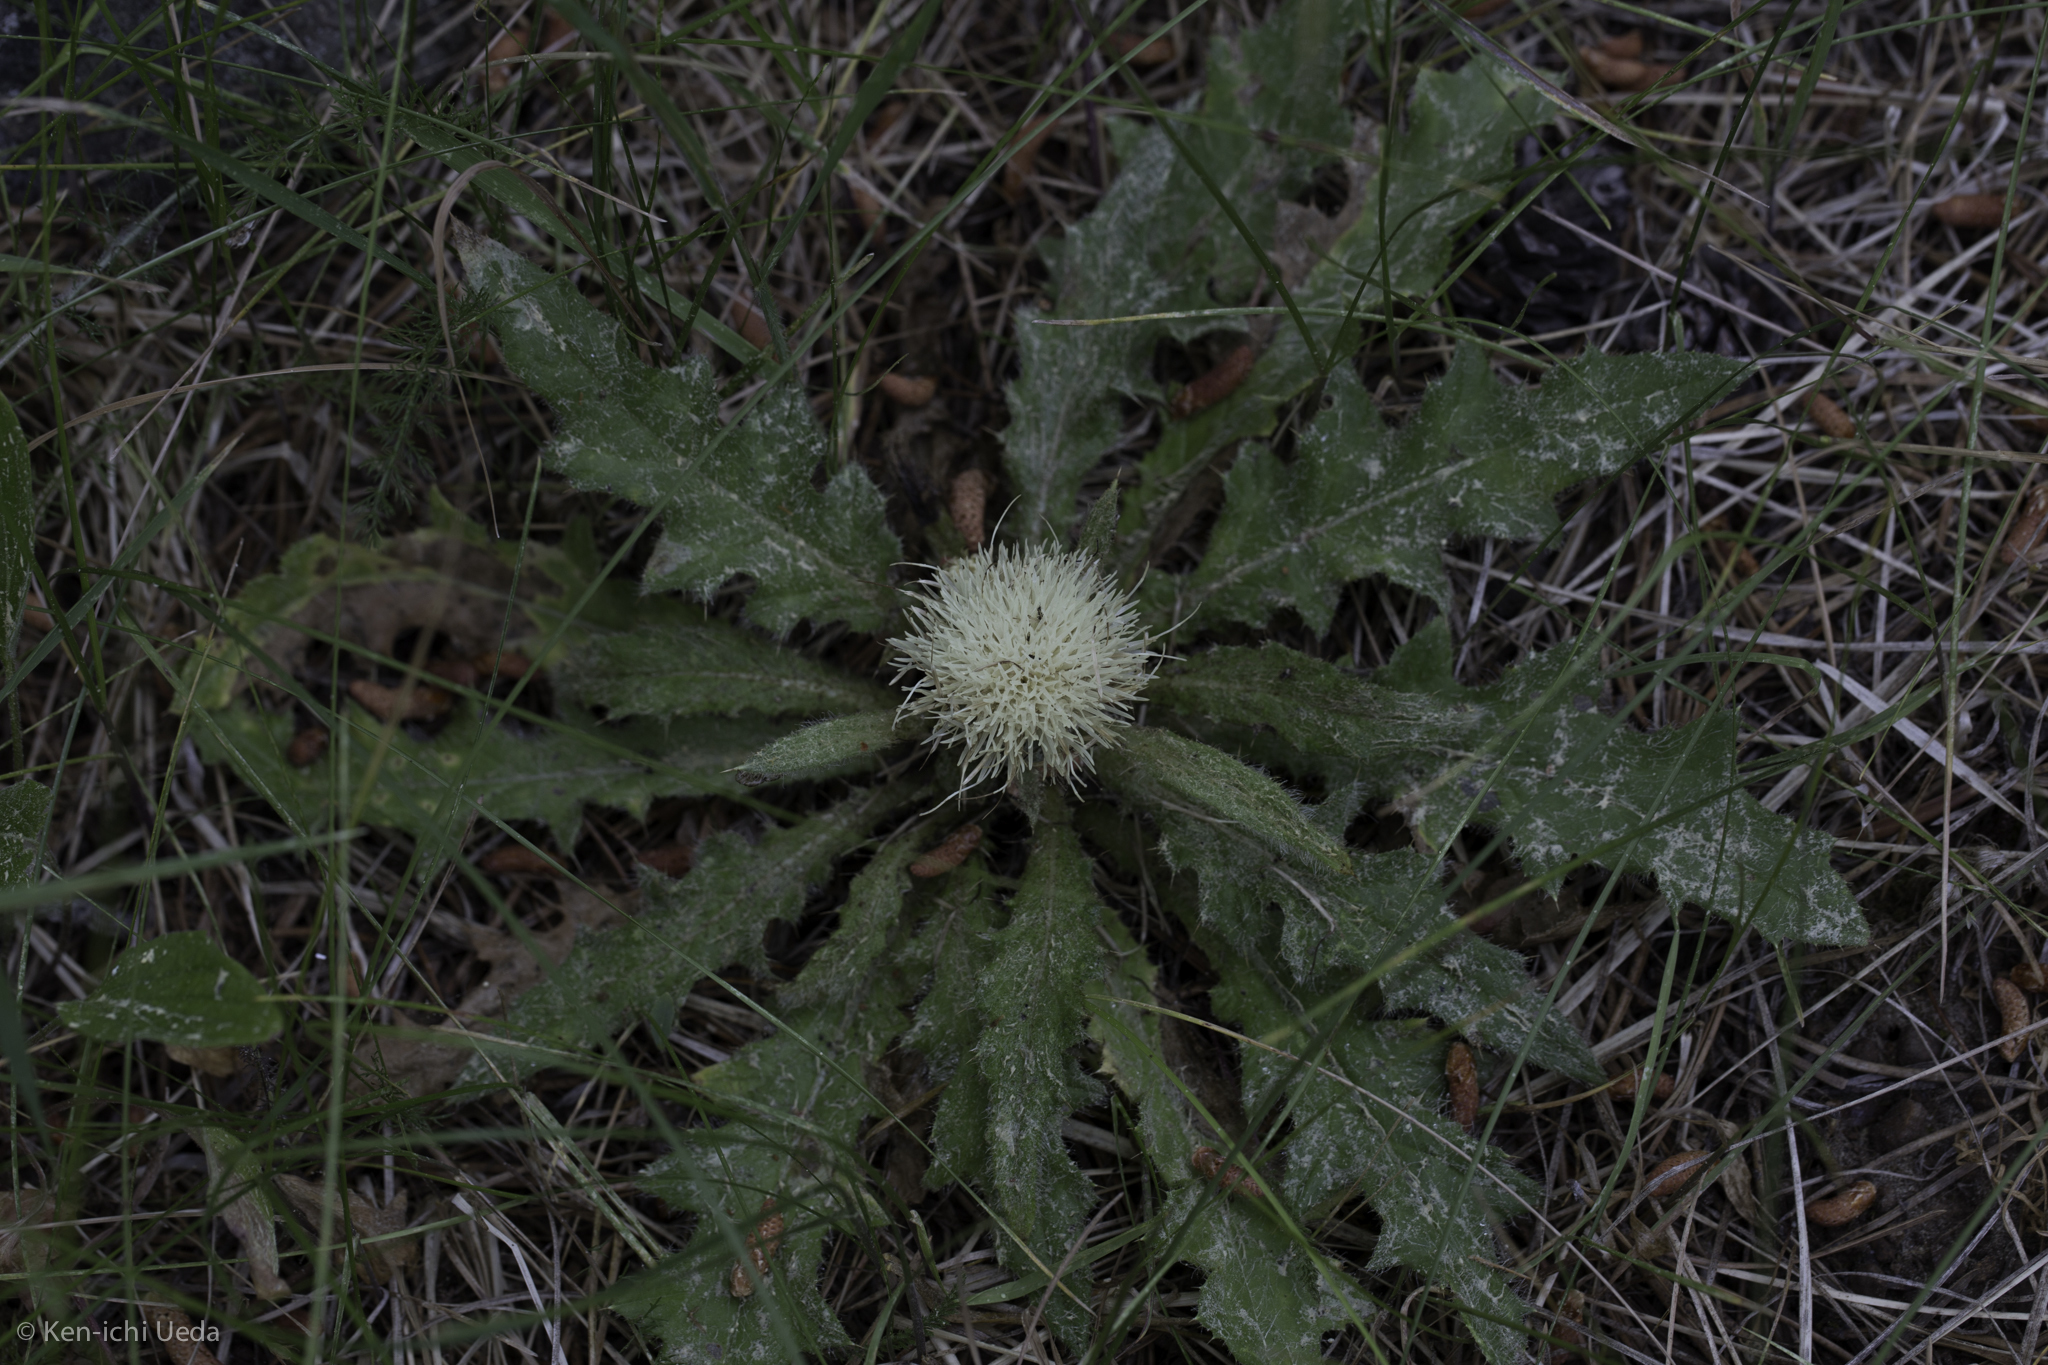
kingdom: Plantae
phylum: Tracheophyta
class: Magnoliopsida
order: Asterales
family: Asteraceae
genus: Cirsium
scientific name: Cirsium scariosum
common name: Meadow thistle
